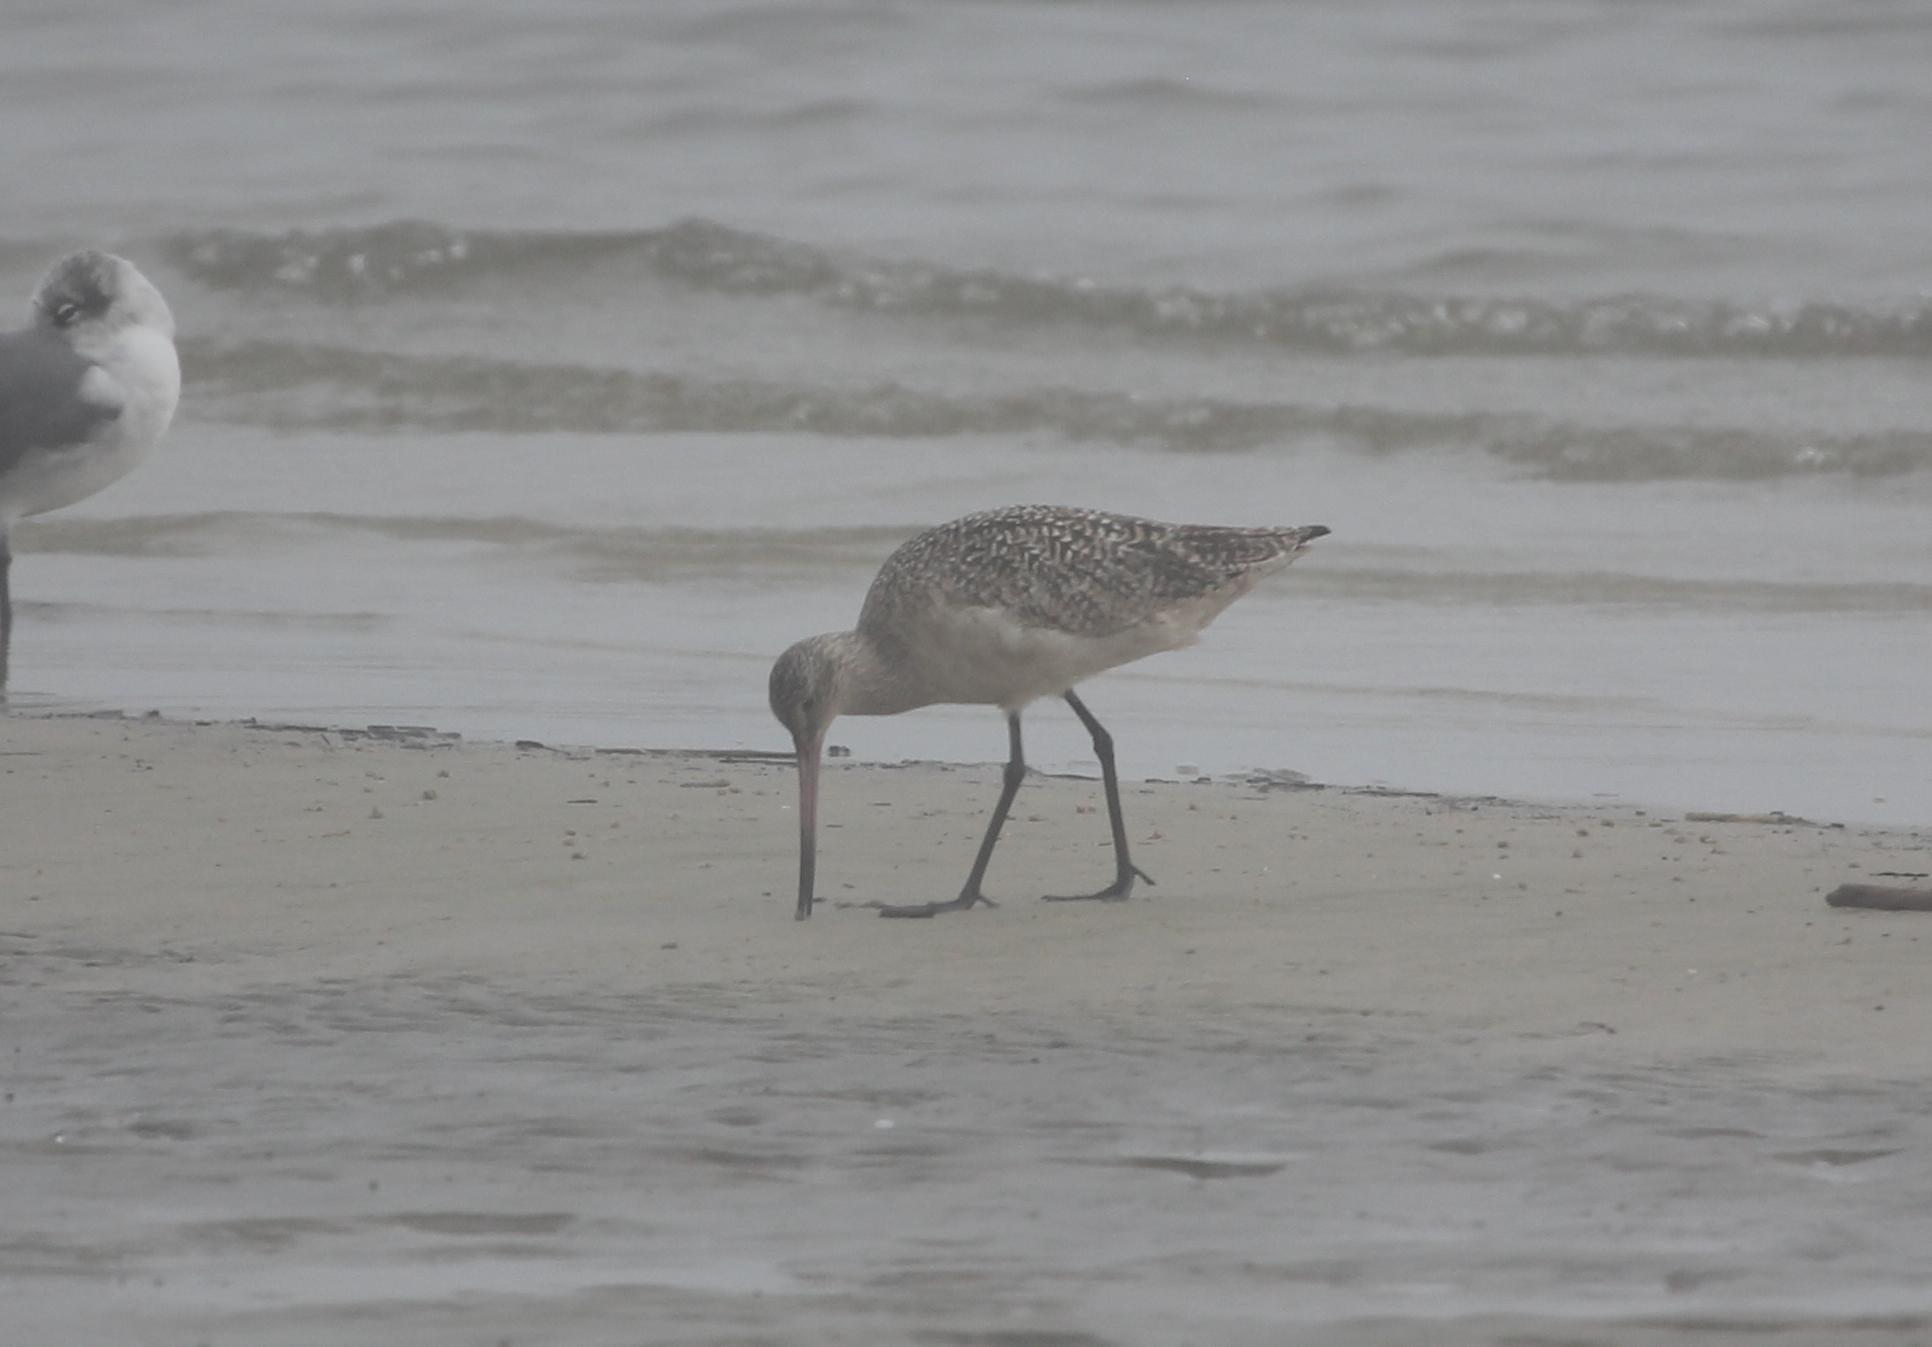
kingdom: Animalia
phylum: Chordata
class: Aves
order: Charadriiformes
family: Scolopacidae
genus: Limosa
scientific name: Limosa fedoa
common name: Marbled godwit
